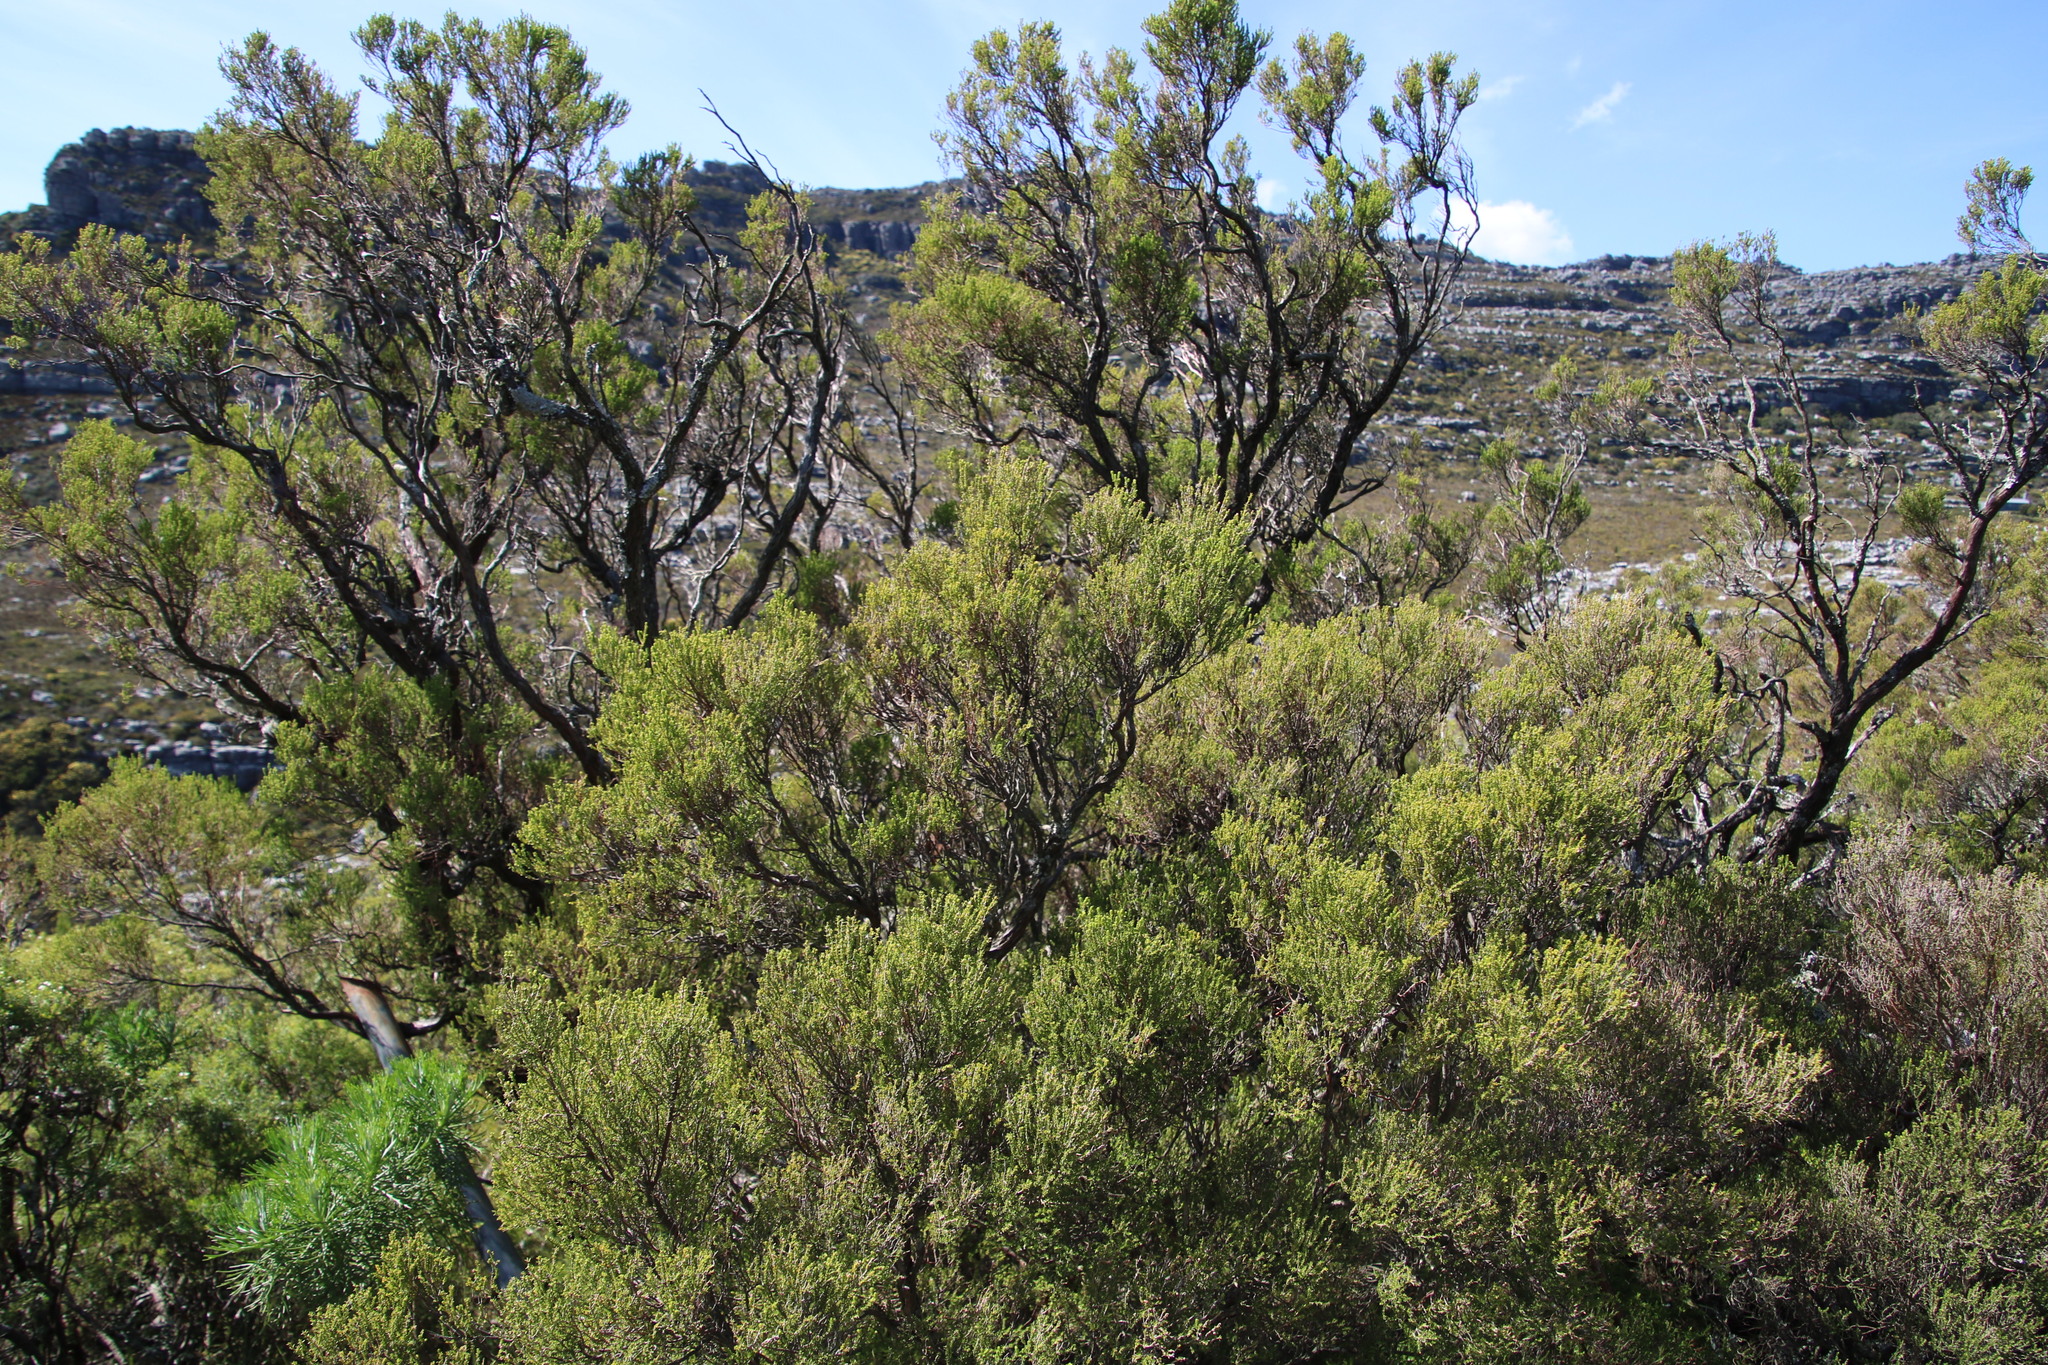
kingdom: Plantae
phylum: Tracheophyta
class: Magnoliopsida
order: Ericales
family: Ericaceae
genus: Erica
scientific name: Erica tristis
